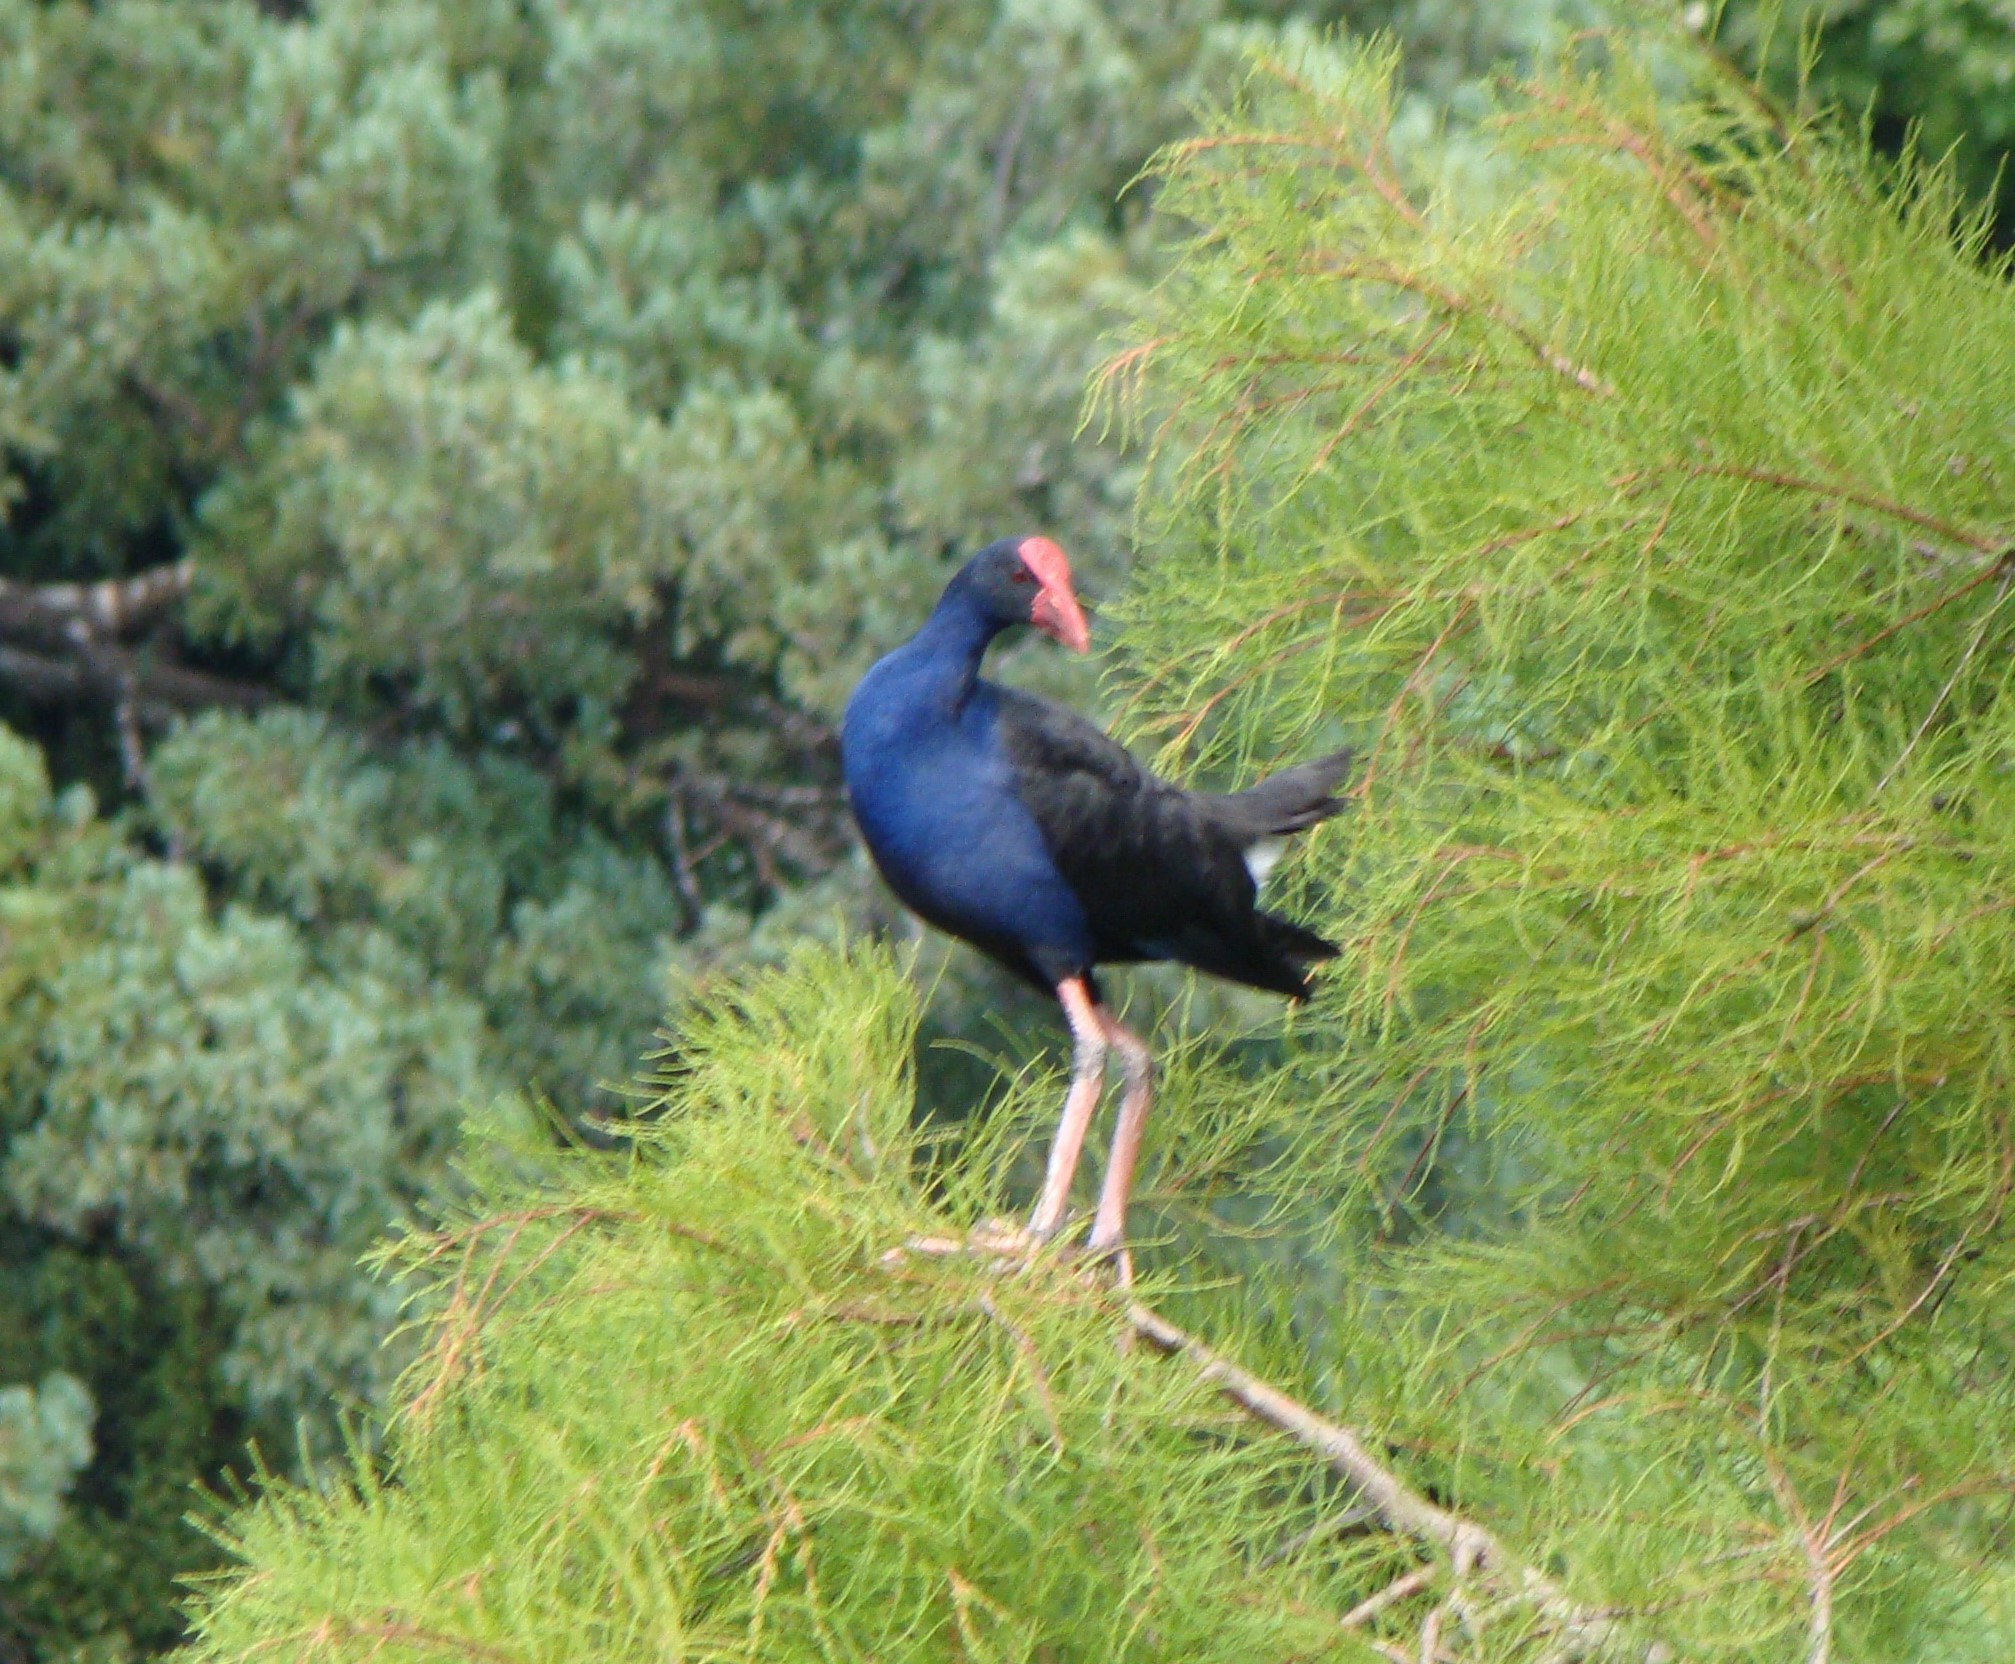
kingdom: Animalia
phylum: Chordata
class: Aves
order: Gruiformes
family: Rallidae
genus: Porphyrio
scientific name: Porphyrio melanotus
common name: Australasian swamphen
